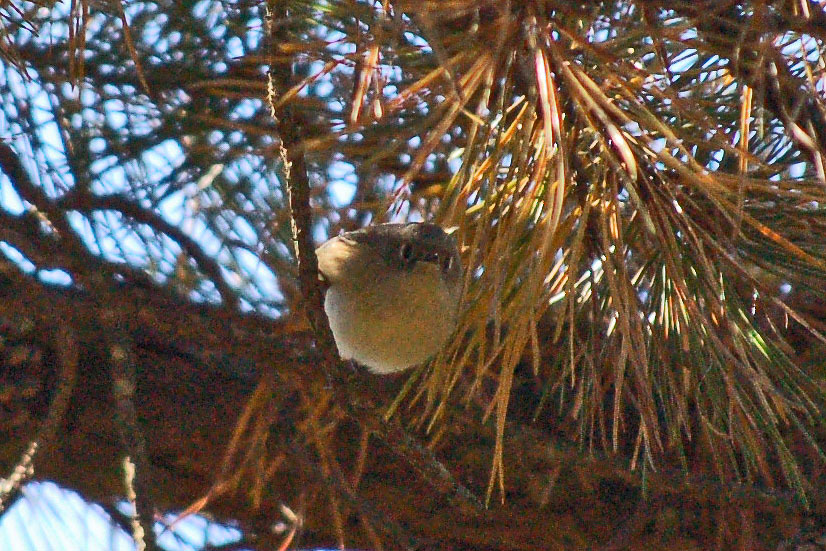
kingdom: Animalia
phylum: Chordata
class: Aves
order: Passeriformes
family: Regulidae
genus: Regulus
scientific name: Regulus calendula
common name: Ruby-crowned kinglet
